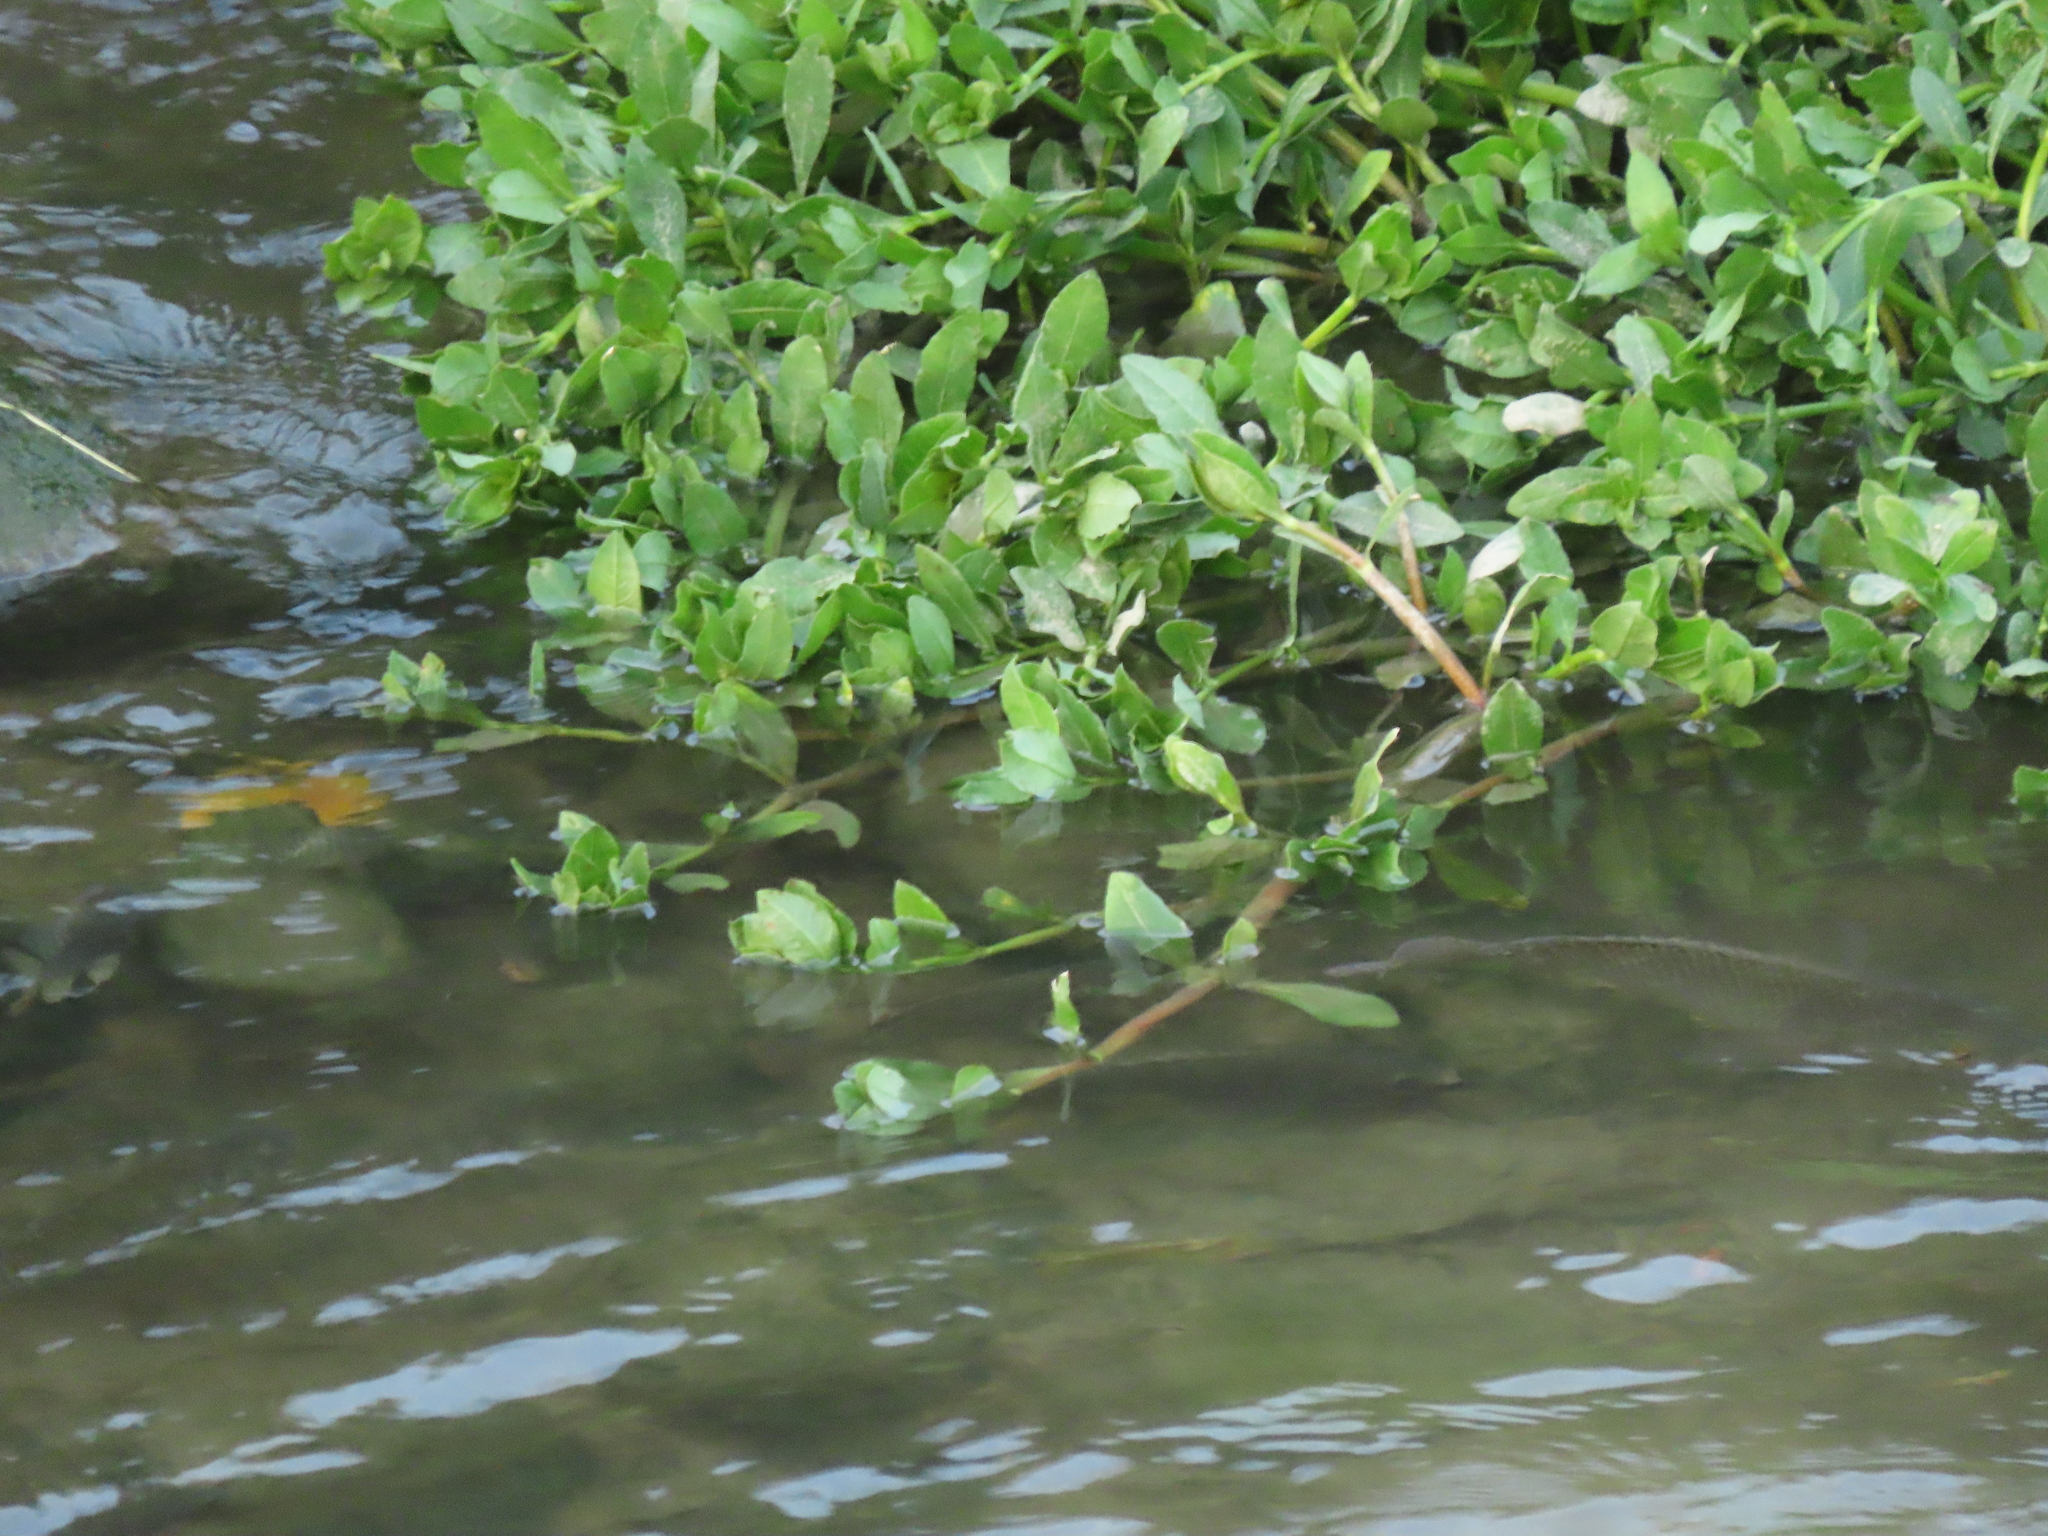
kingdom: Plantae
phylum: Tracheophyta
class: Magnoliopsida
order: Caryophyllales
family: Amaranthaceae
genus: Alternanthera
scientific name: Alternanthera philoxeroides
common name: Alligatorweed
